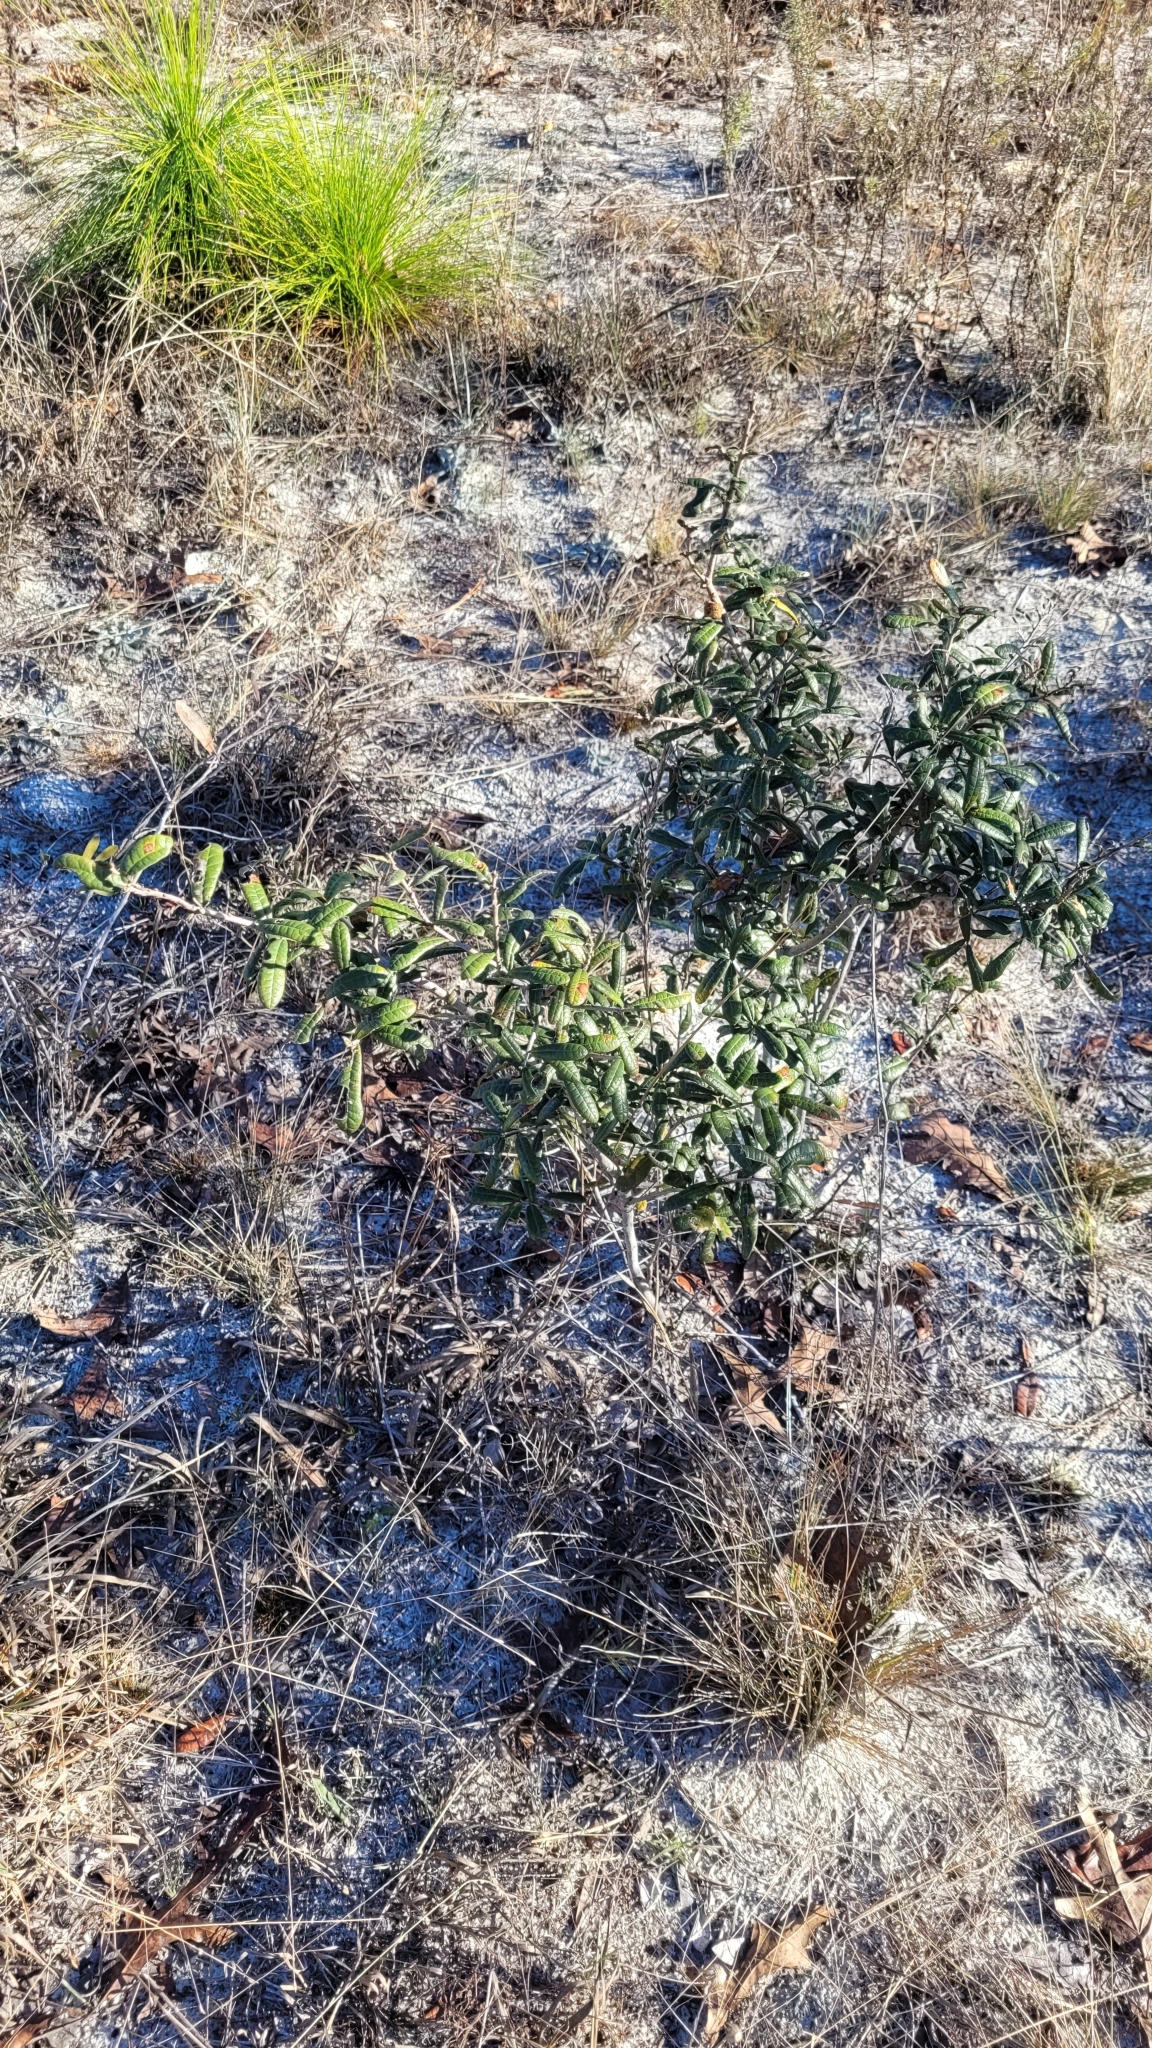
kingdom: Plantae
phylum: Tracheophyta
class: Magnoliopsida
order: Fagales
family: Fagaceae
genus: Quercus
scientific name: Quercus geminata
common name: Sand live oak
